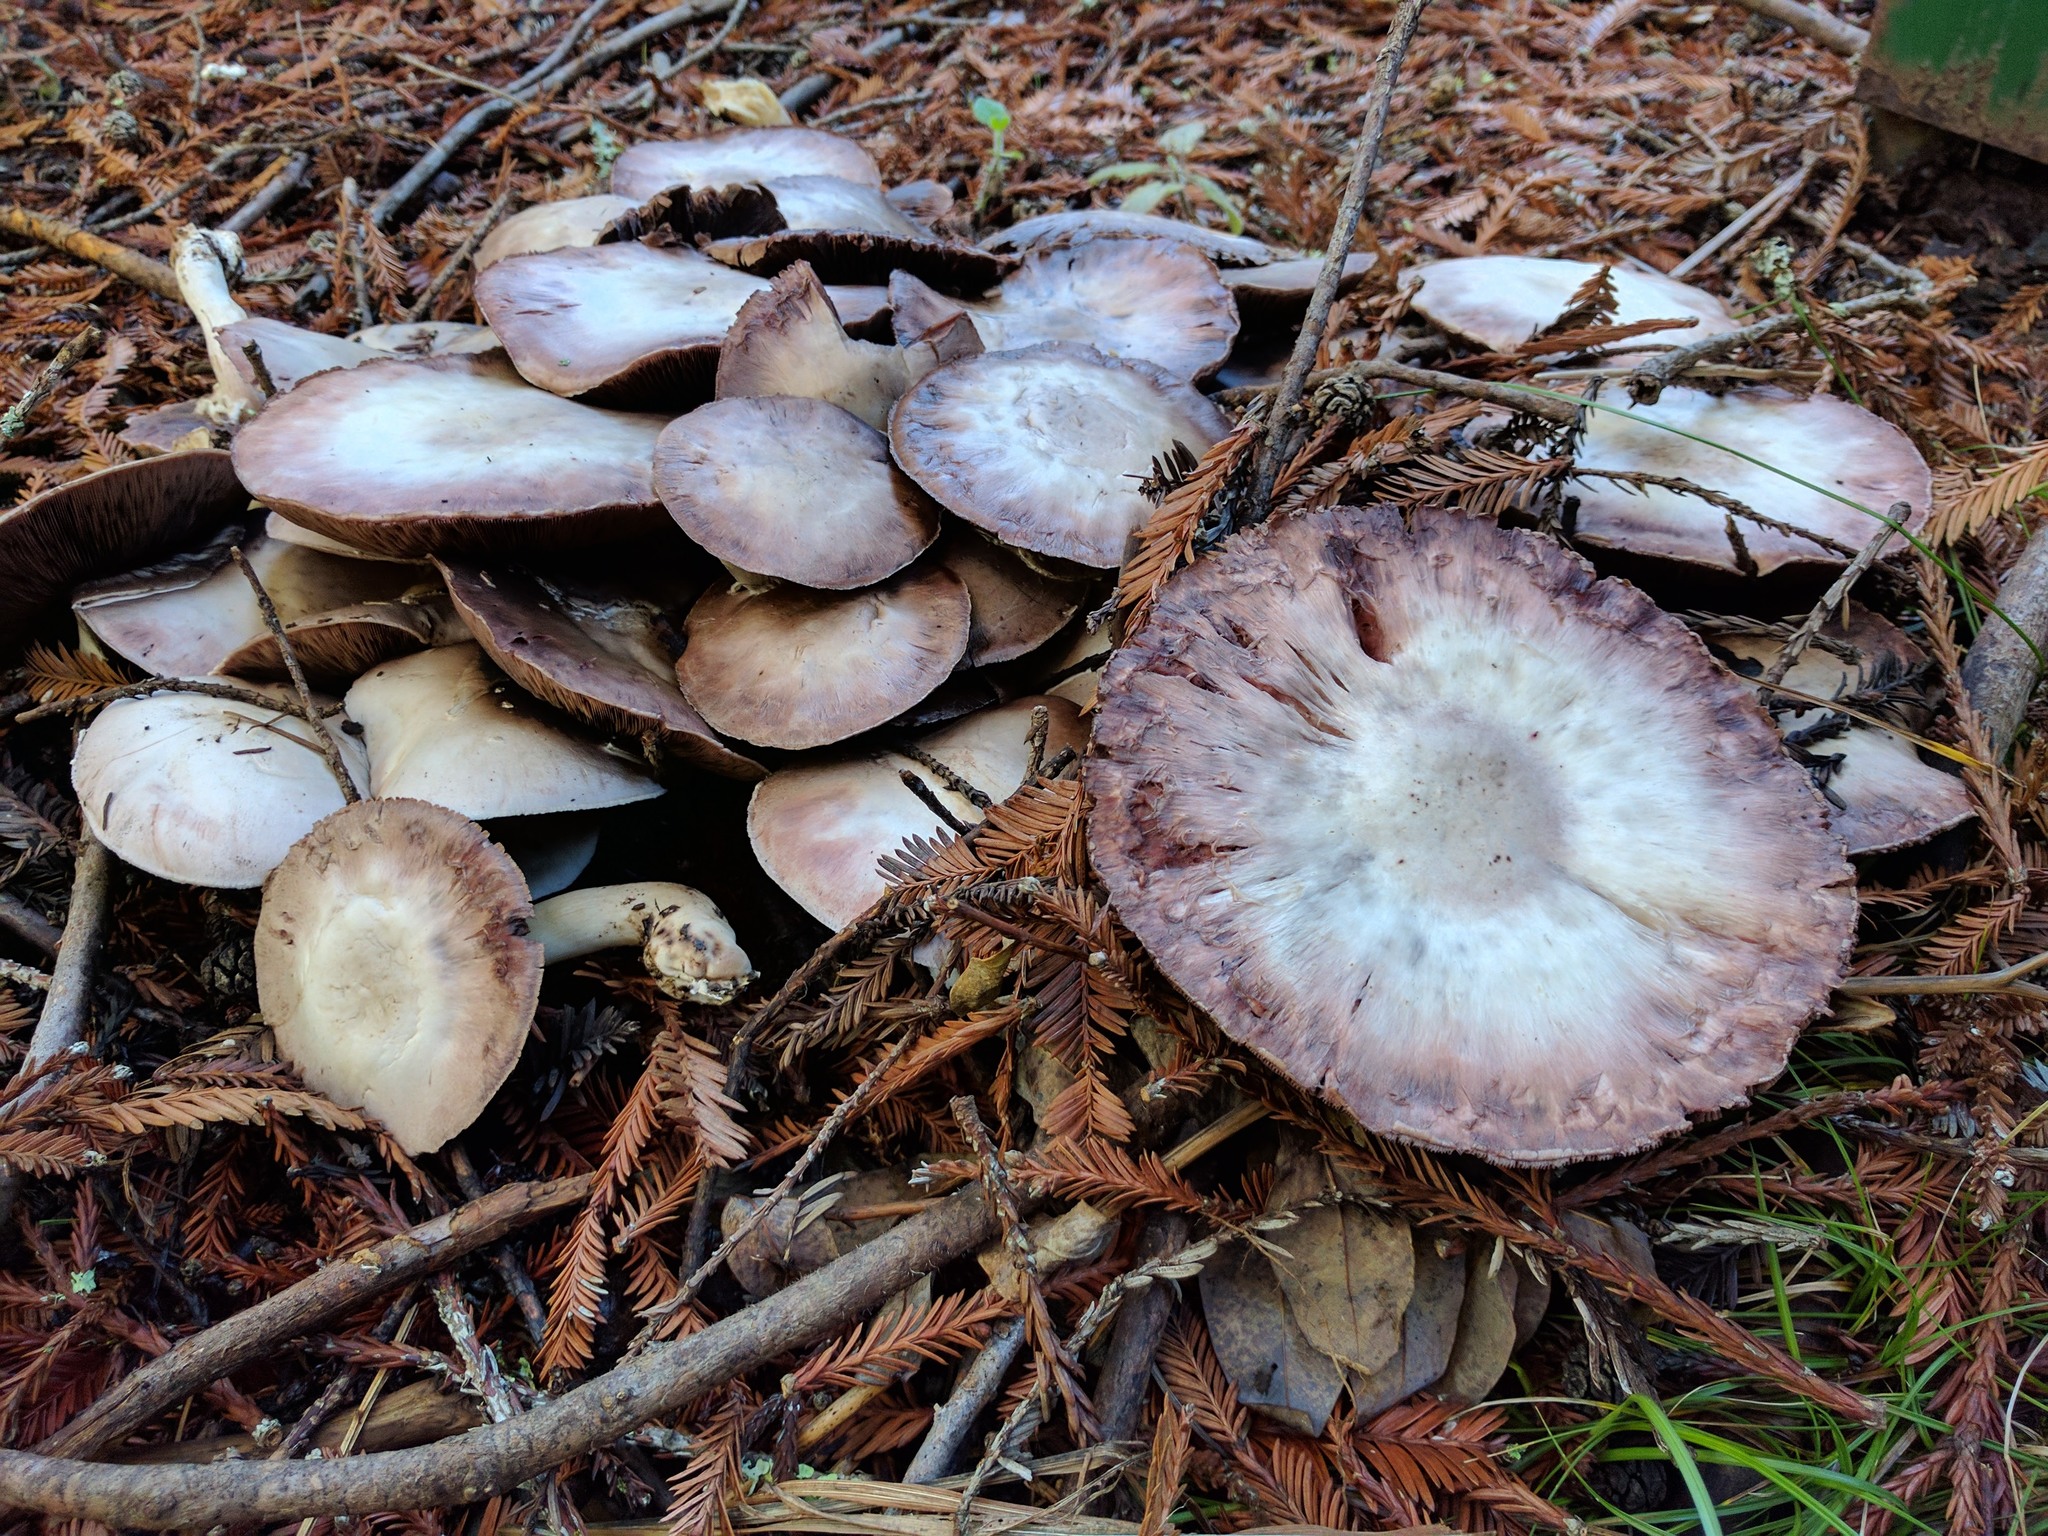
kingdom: Fungi
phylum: Basidiomycota
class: Agaricomycetes
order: Agaricales
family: Agaricaceae
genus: Agaricus
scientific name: Agaricus xanthodermus
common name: Yellow stainer
